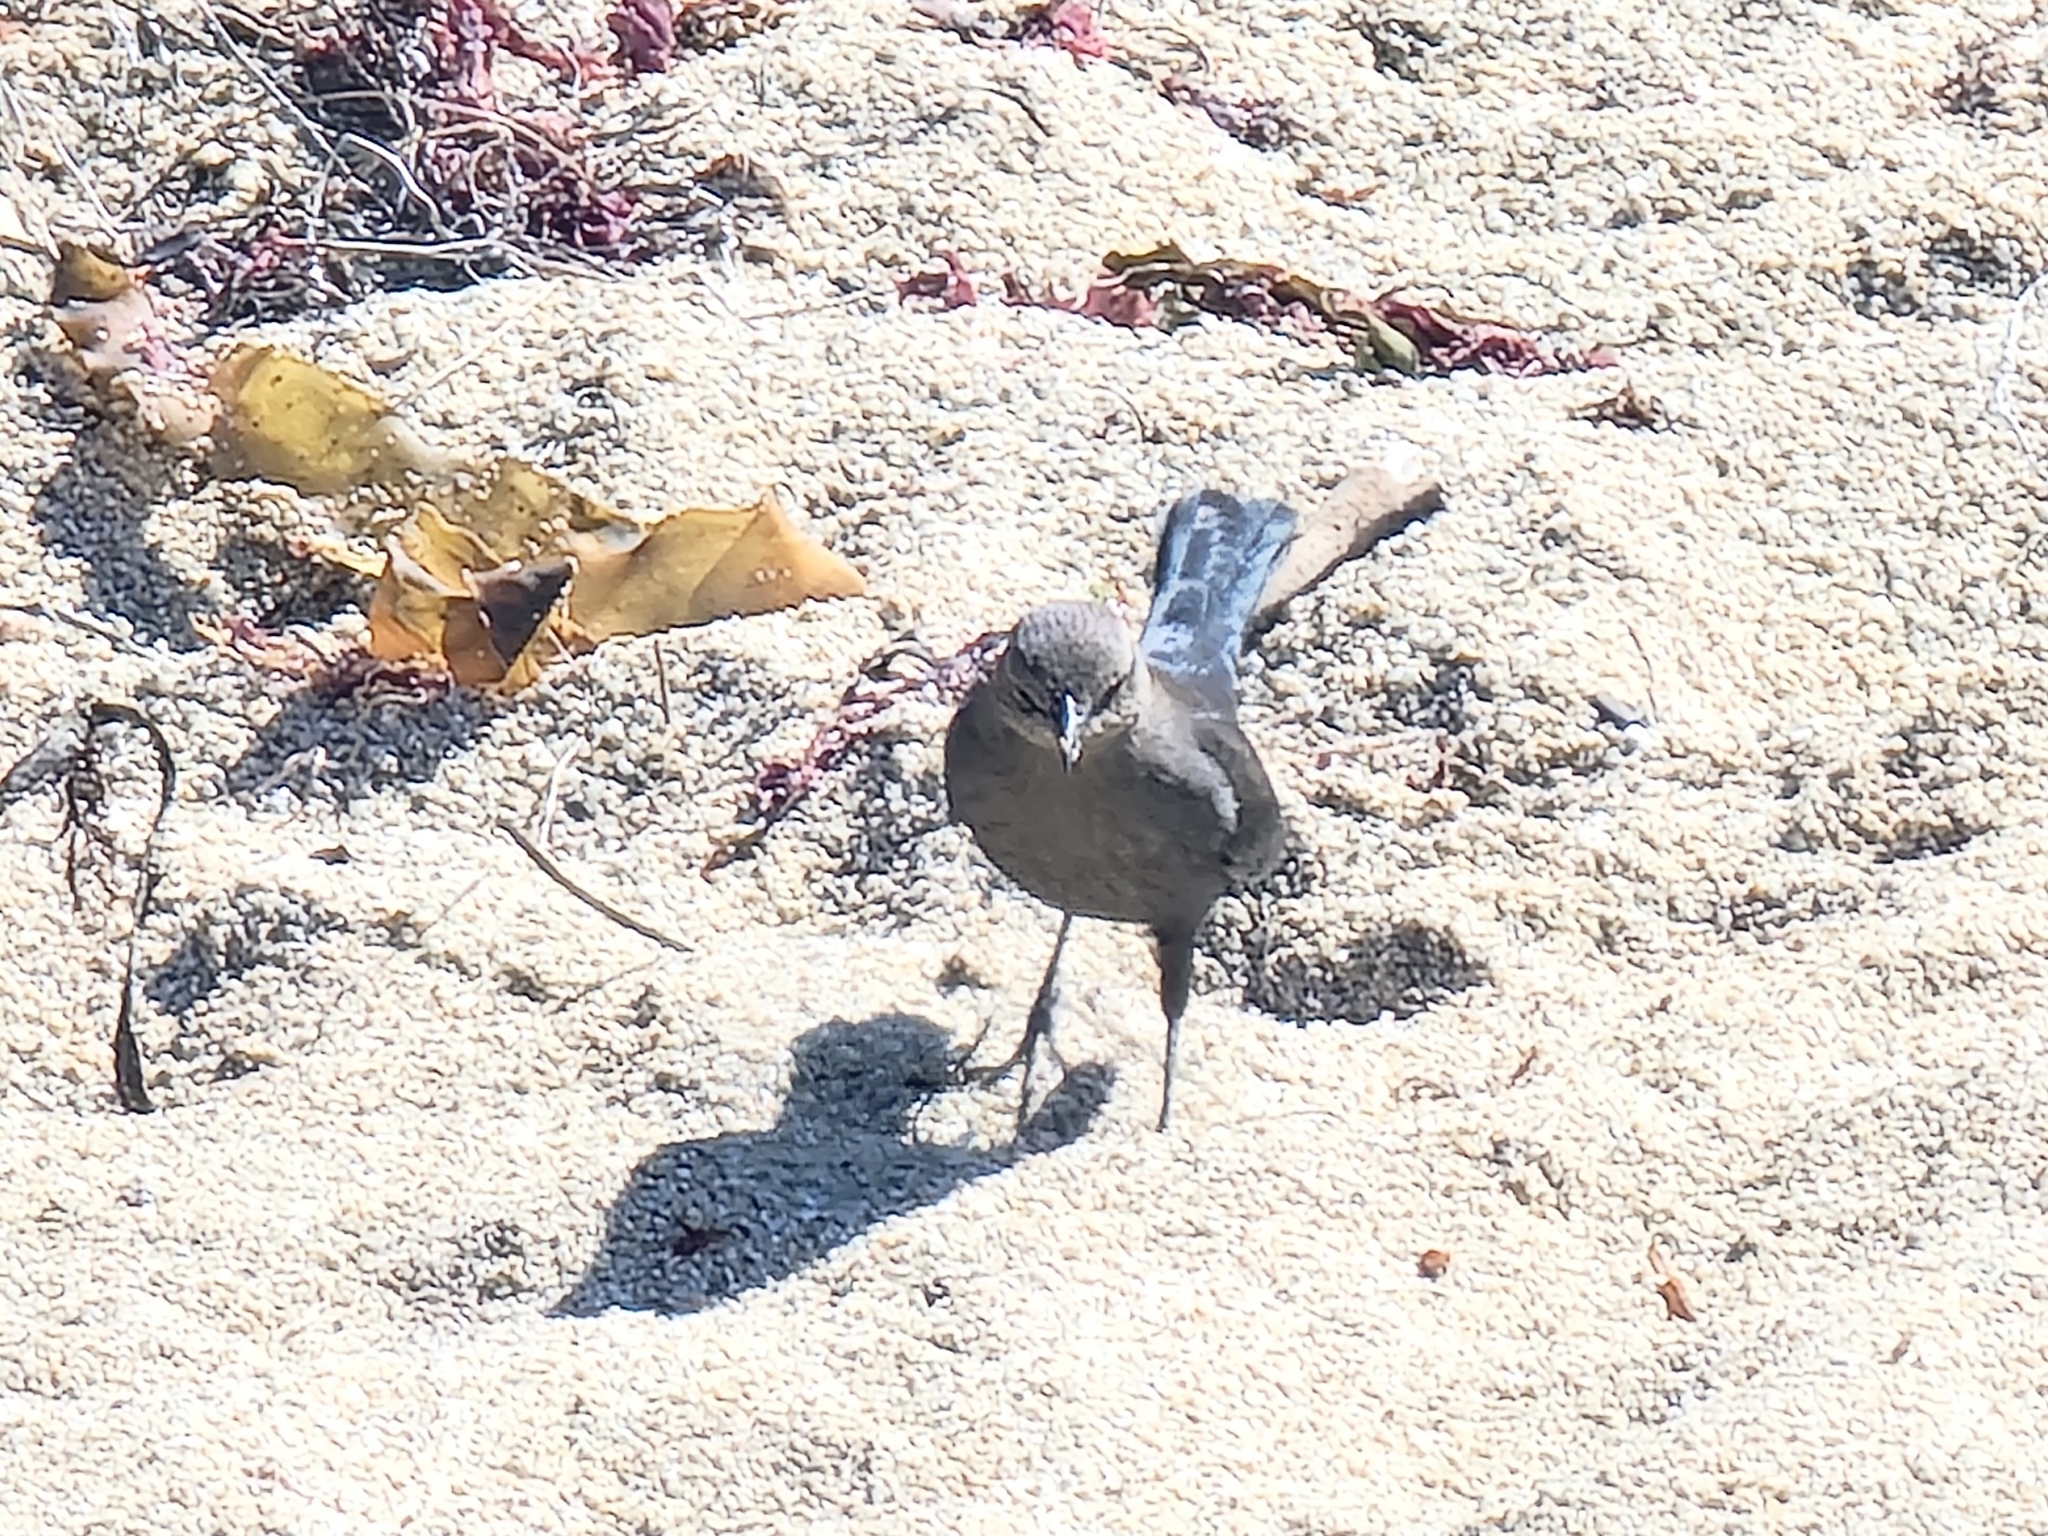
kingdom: Animalia
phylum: Chordata
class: Aves
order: Passeriformes
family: Icteridae
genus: Euphagus
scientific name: Euphagus cyanocephalus
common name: Brewer's blackbird
